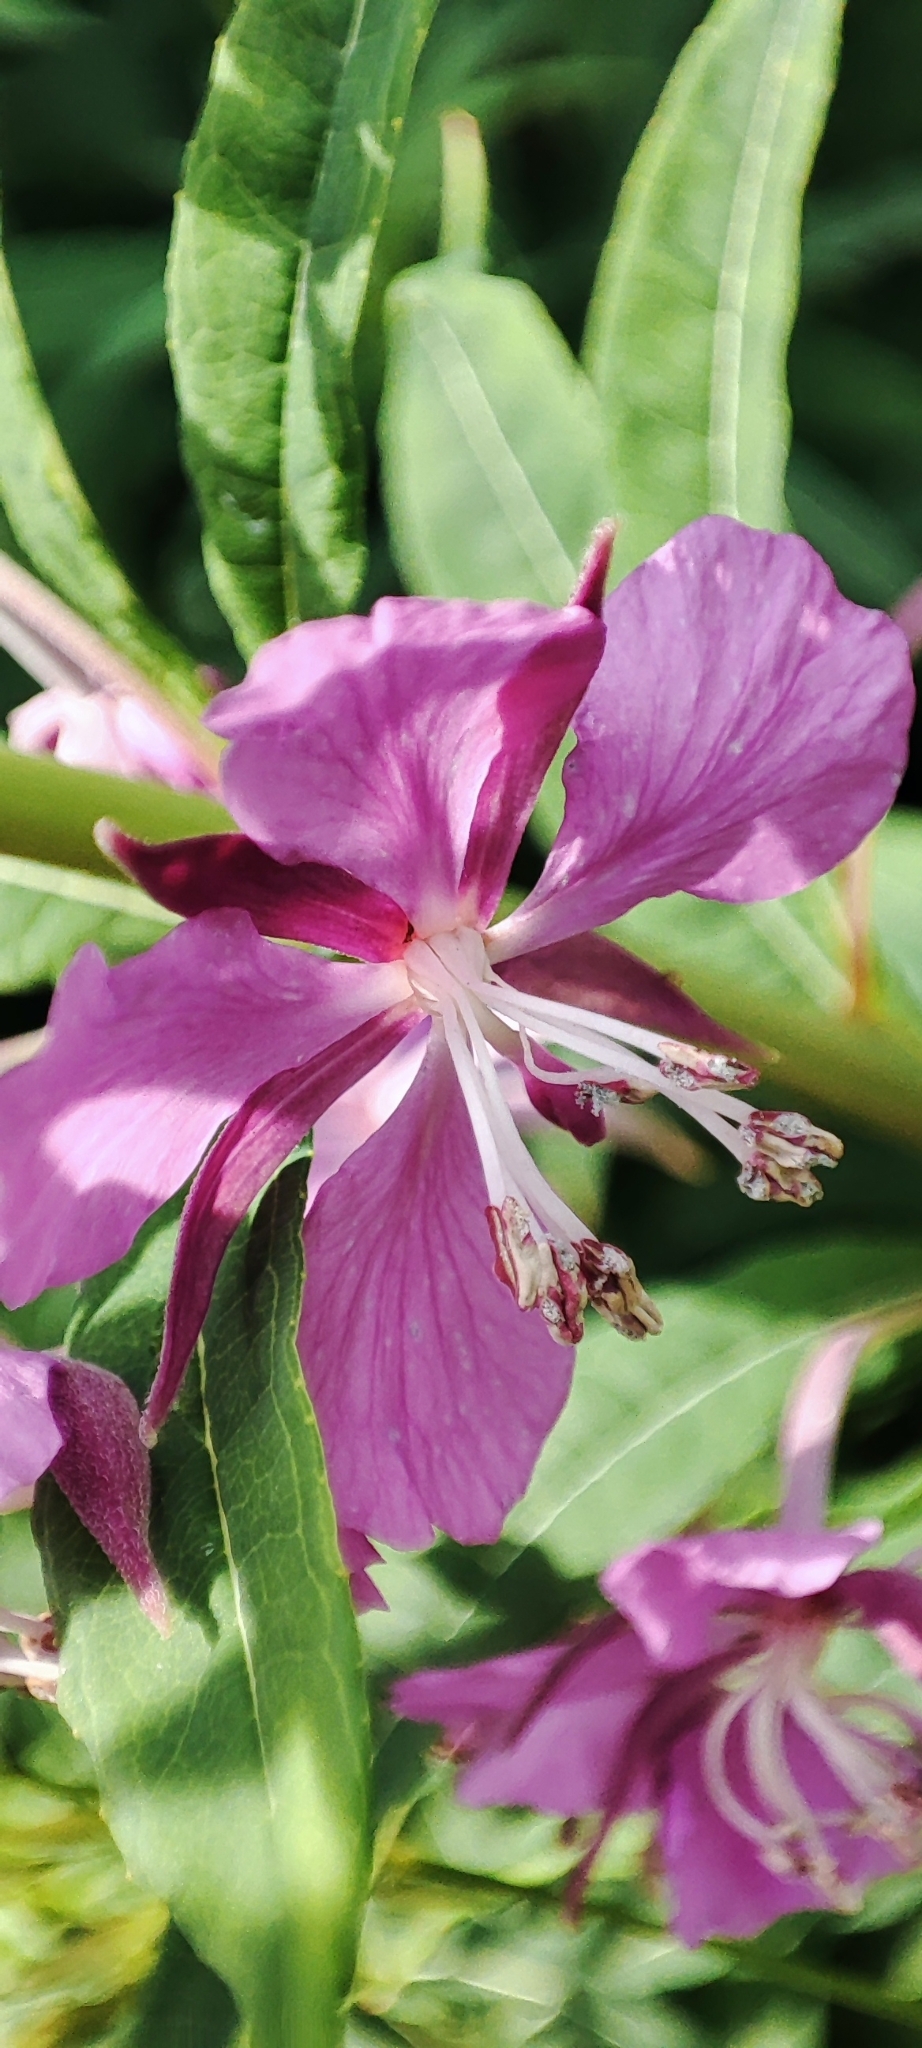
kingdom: Plantae
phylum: Tracheophyta
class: Magnoliopsida
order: Myrtales
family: Onagraceae
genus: Chamaenerion
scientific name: Chamaenerion angustifolium
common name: Fireweed
